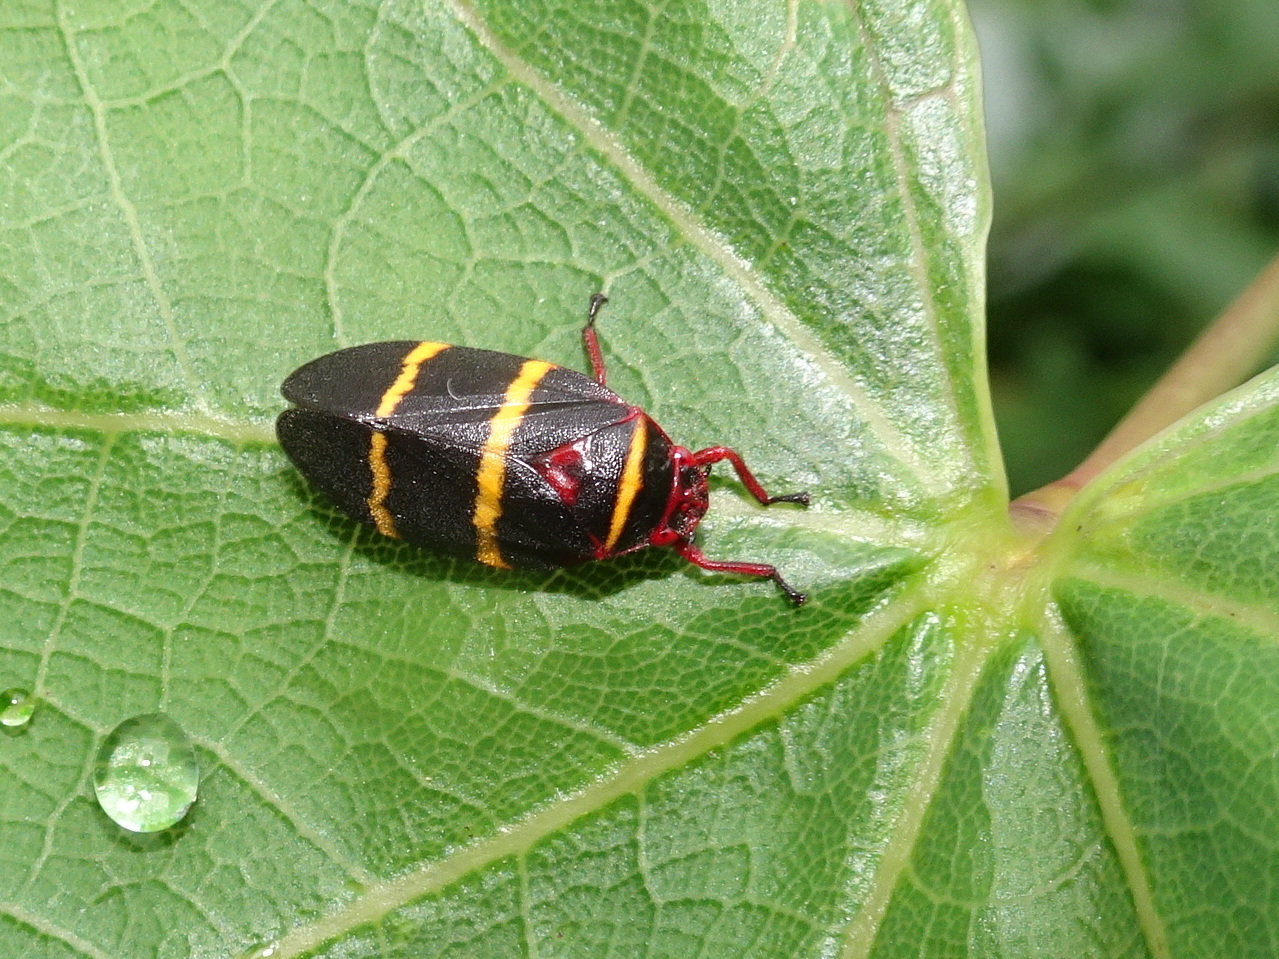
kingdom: Animalia
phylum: Arthropoda
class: Insecta
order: Hemiptera
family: Cercopidae
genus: Prosapia
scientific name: Prosapia bicincta
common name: Twolined spittlebug
